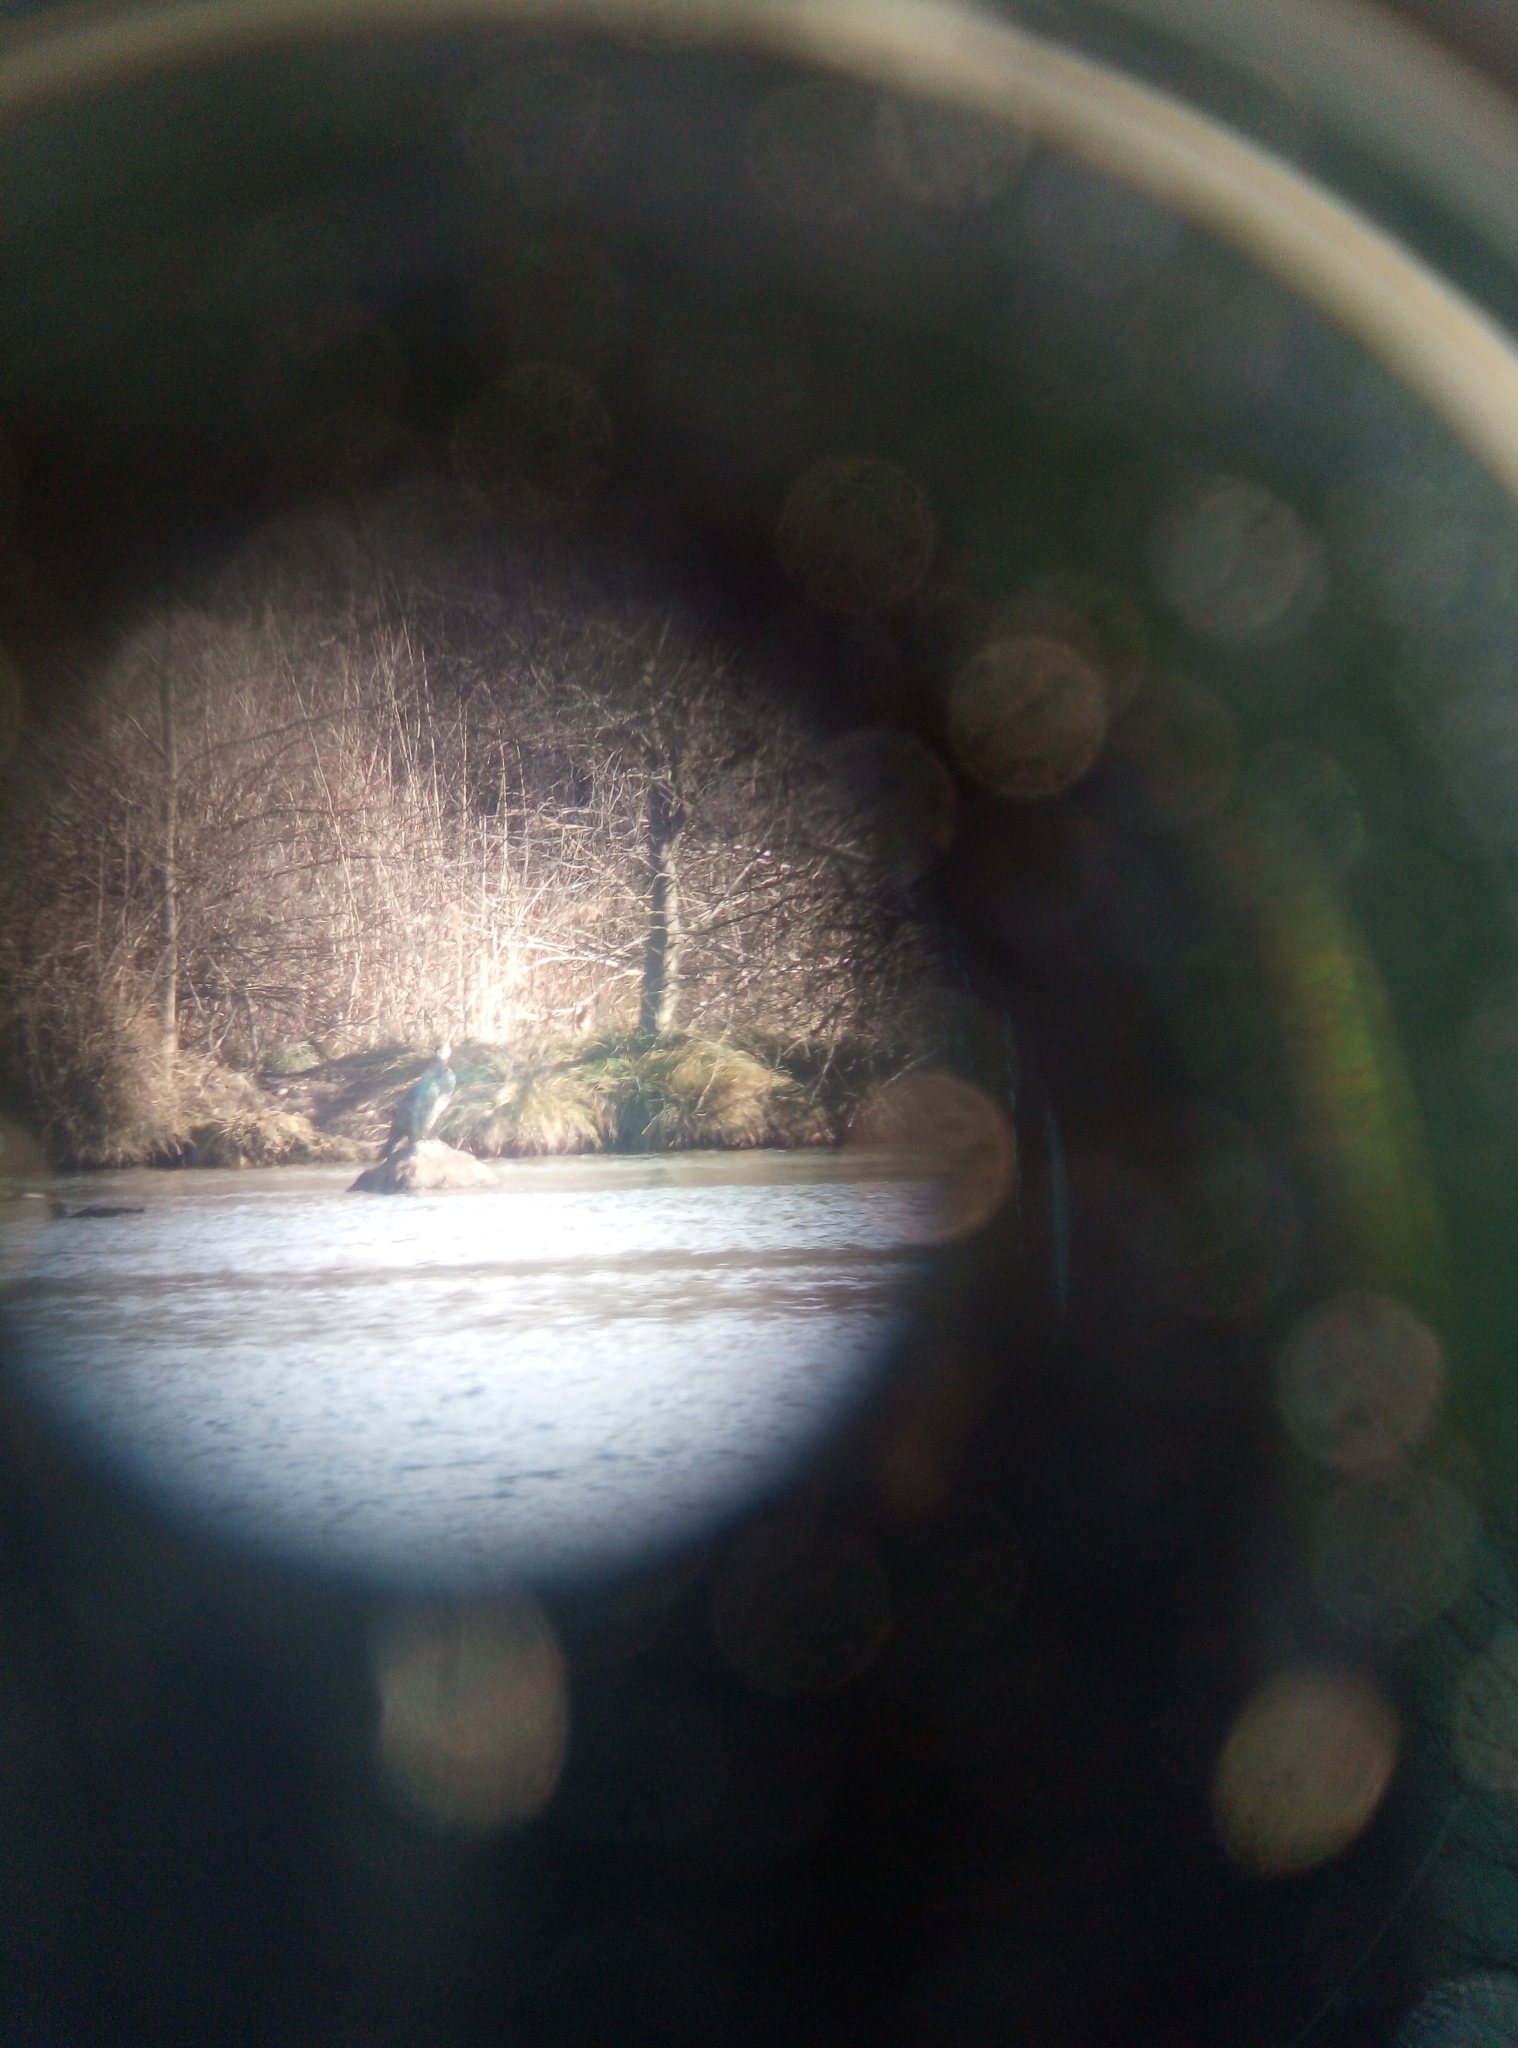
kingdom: Animalia
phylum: Chordata
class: Aves
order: Suliformes
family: Phalacrocoracidae
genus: Phalacrocorax
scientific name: Phalacrocorax carbo
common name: Great cormorant
